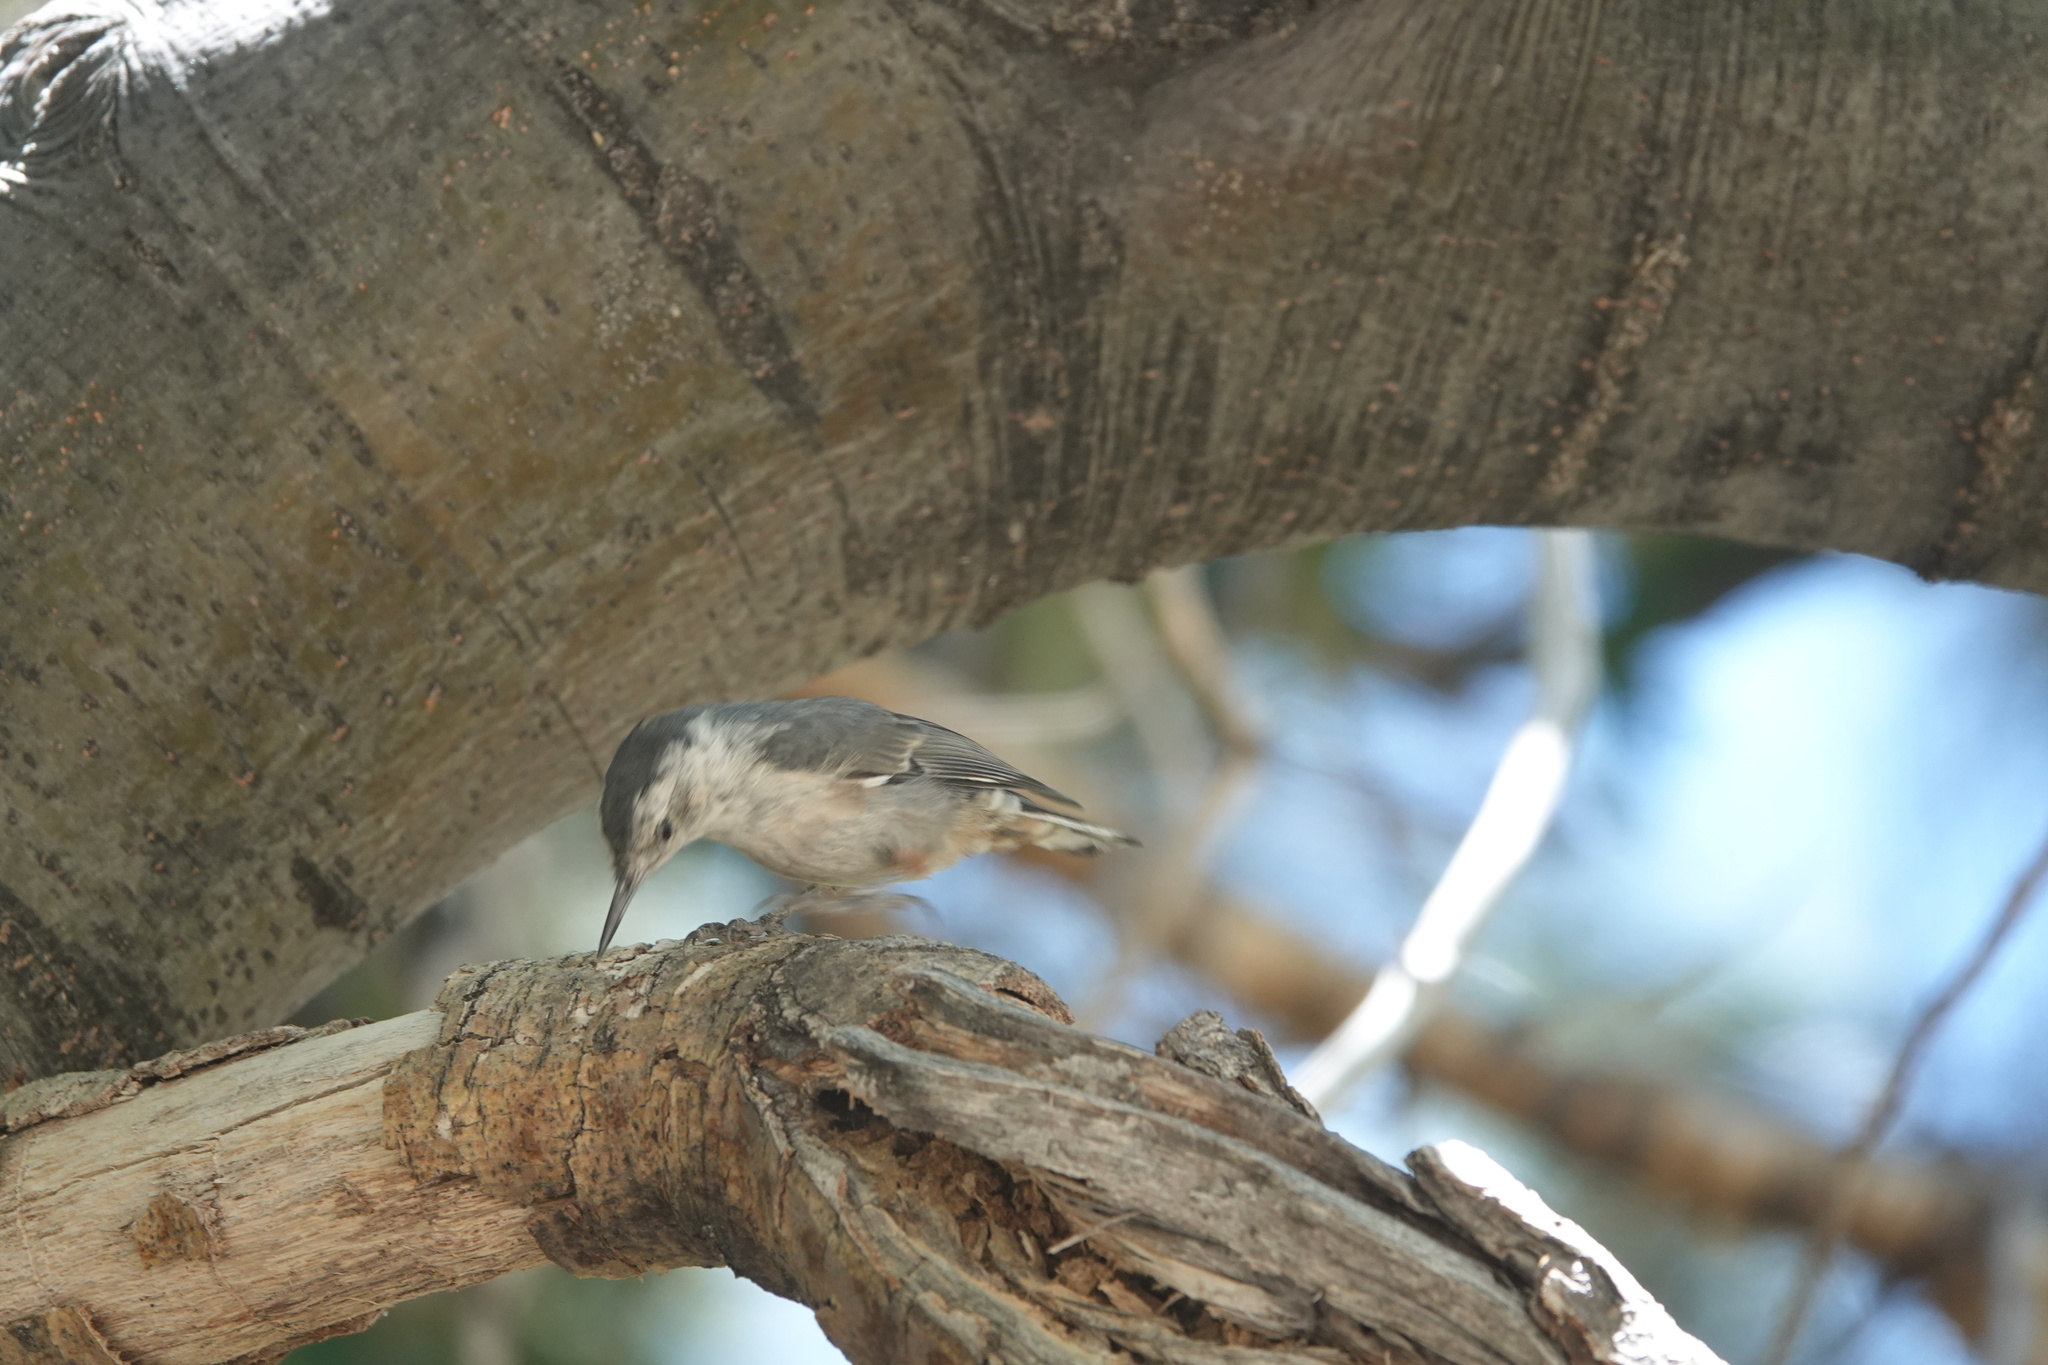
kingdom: Animalia
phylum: Chordata
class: Aves
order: Passeriformes
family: Sittidae
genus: Sitta
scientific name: Sitta carolinensis
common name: White-breasted nuthatch
